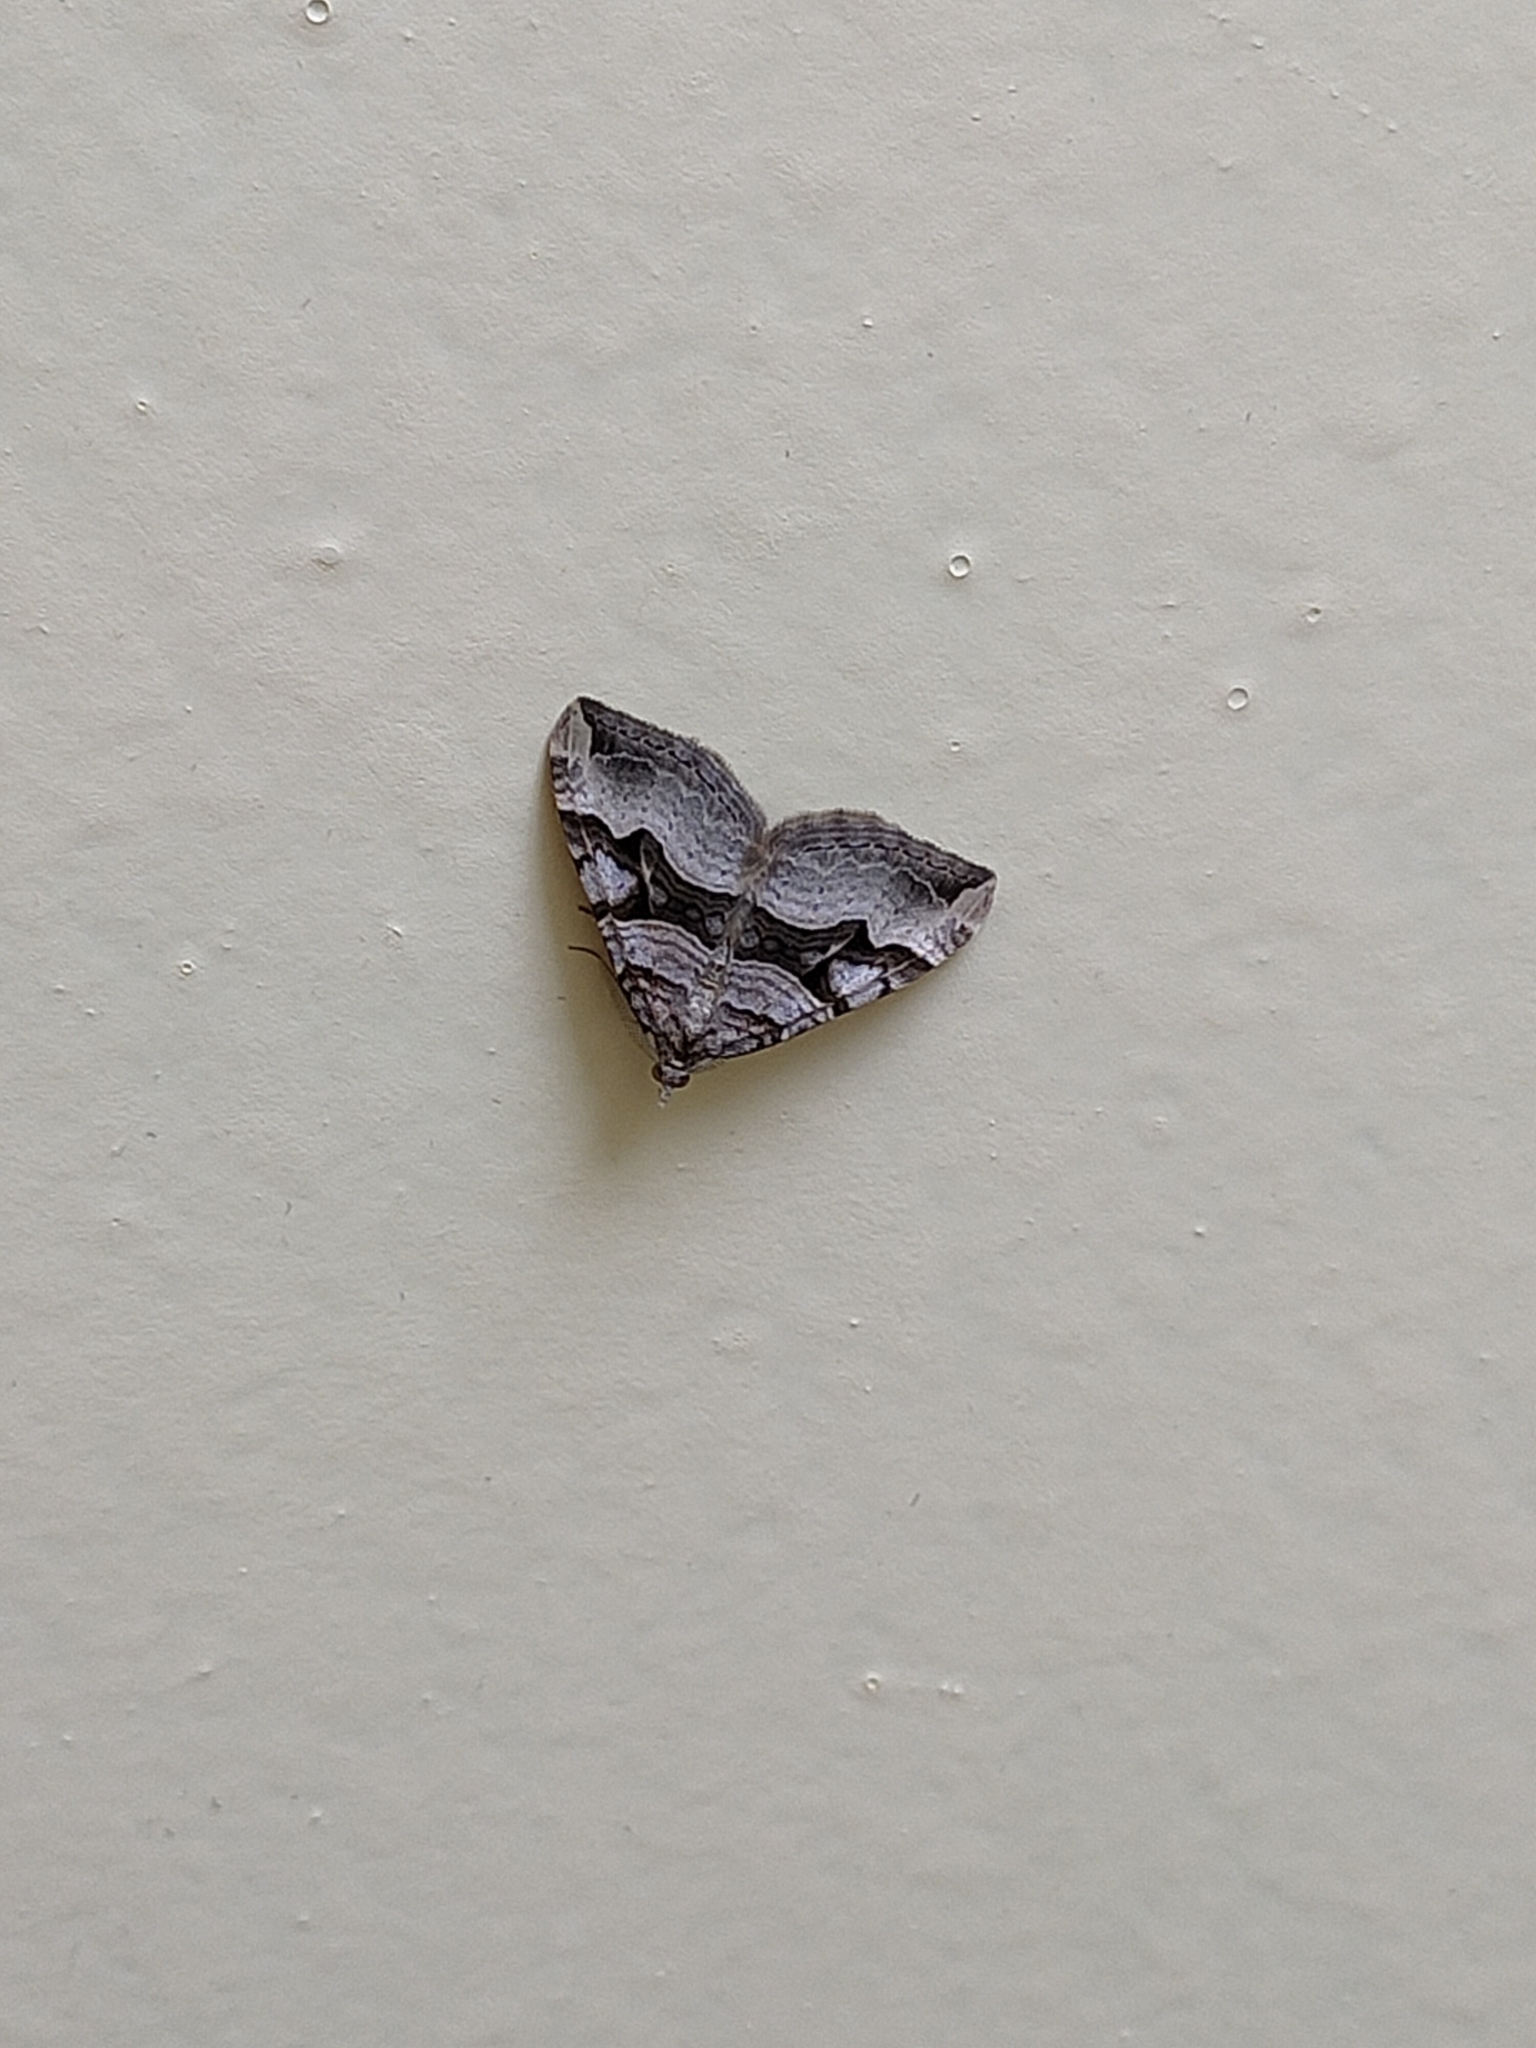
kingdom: Animalia
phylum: Arthropoda
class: Insecta
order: Lepidoptera
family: Geometridae
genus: Xanthorhoe
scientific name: Xanthorhoe semifissata
